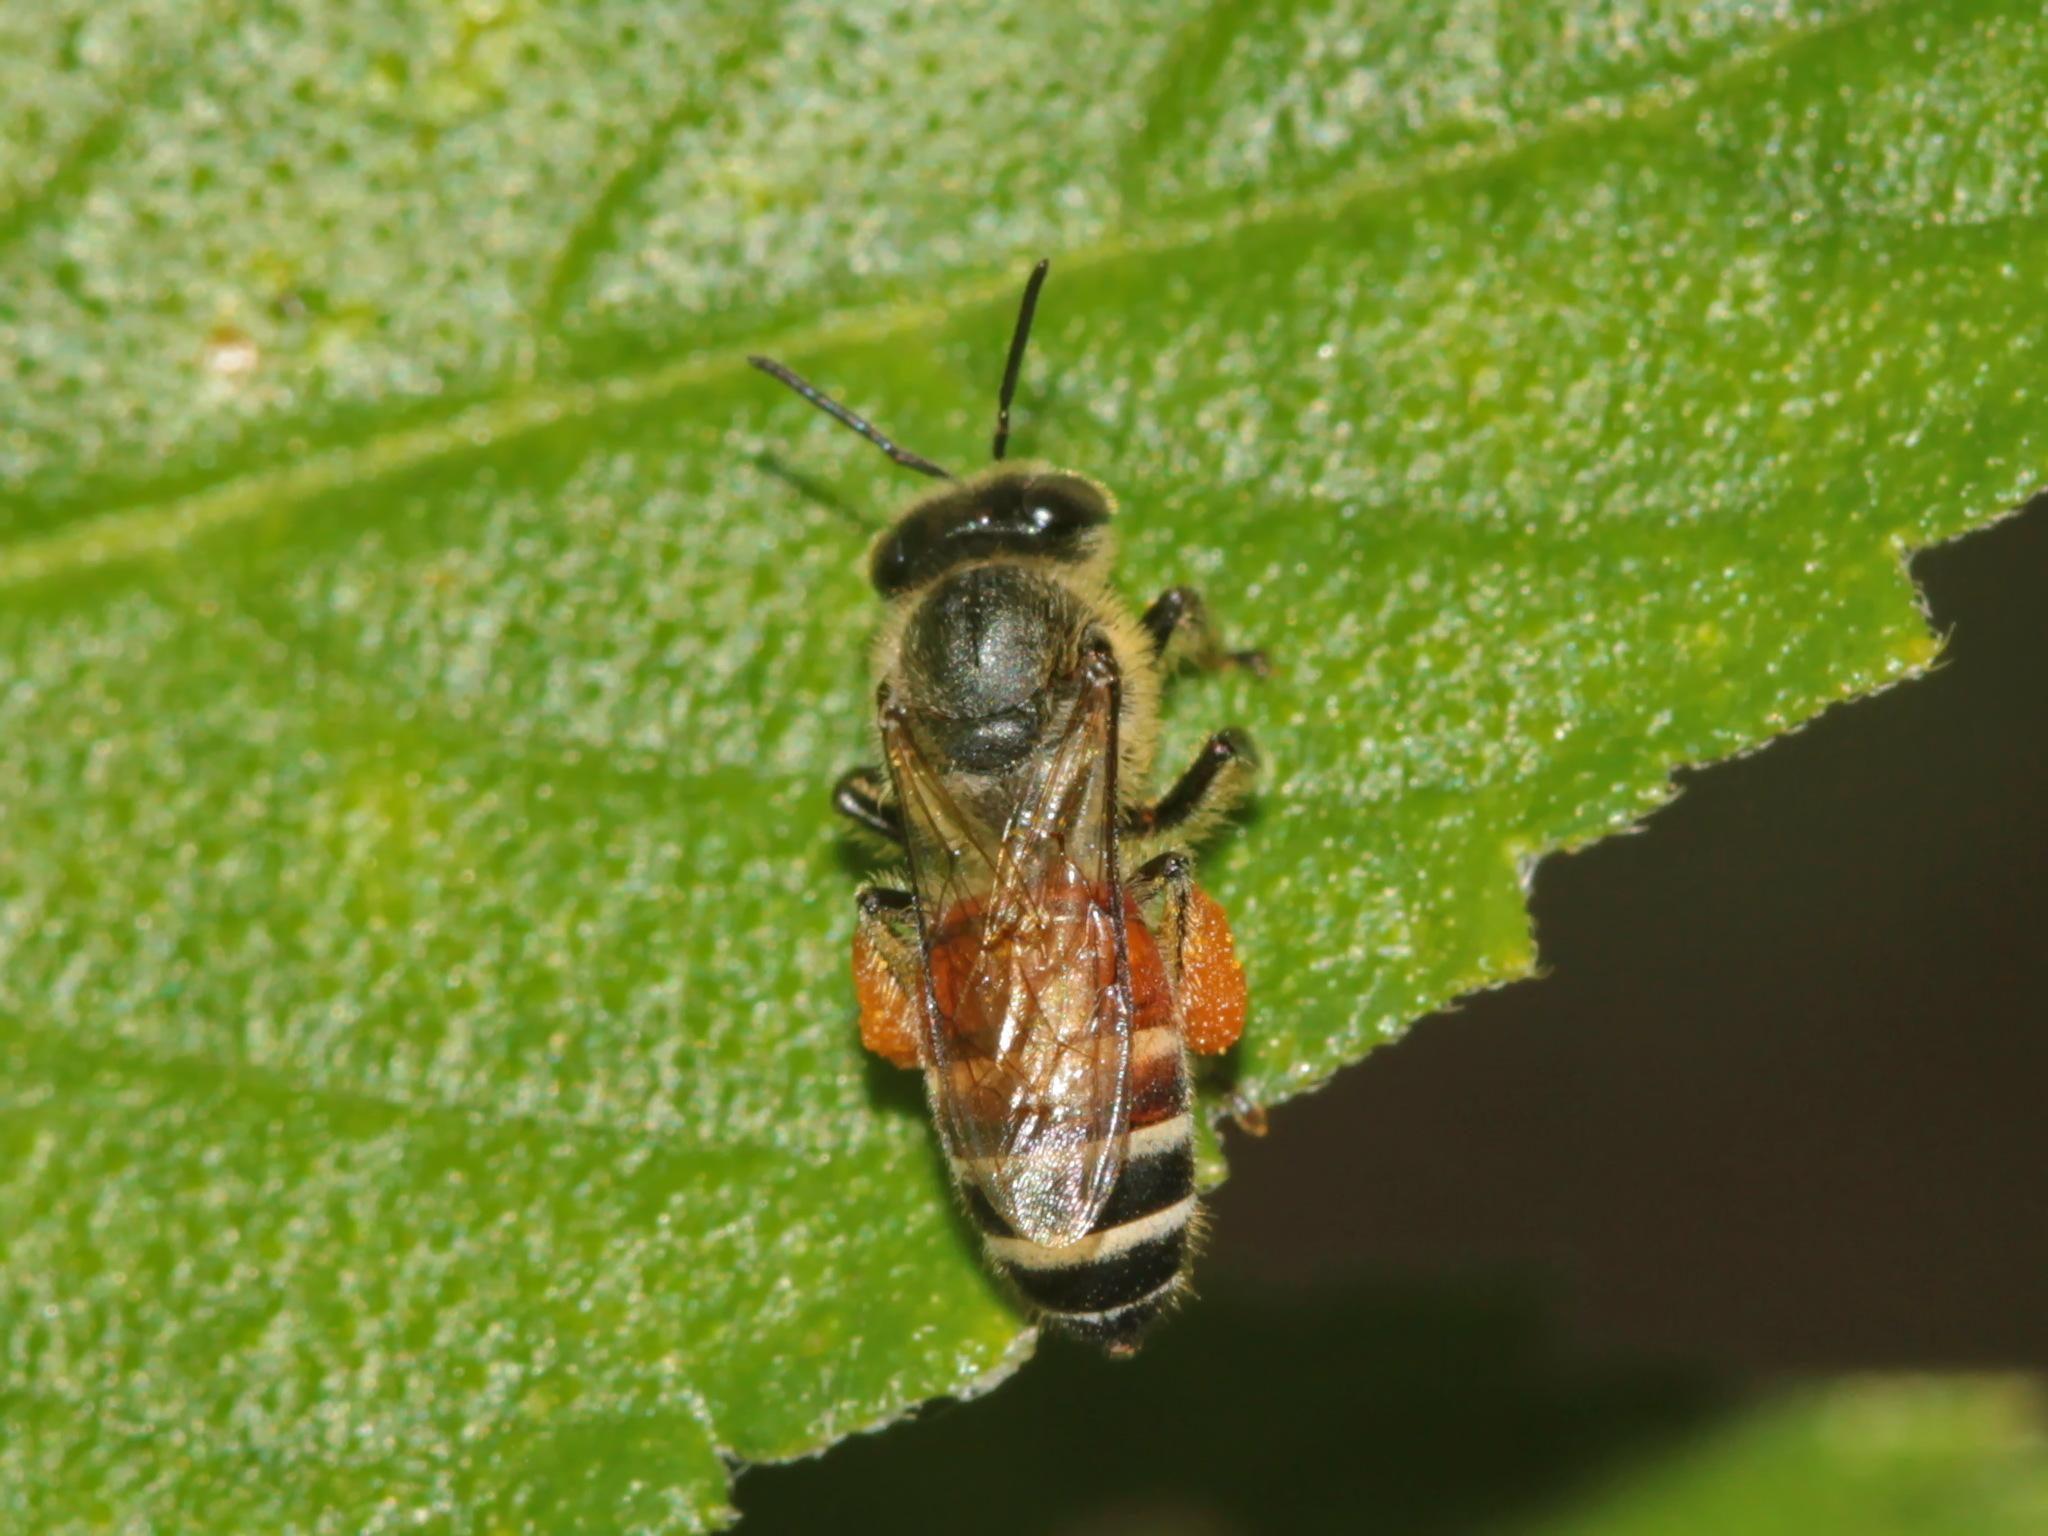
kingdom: Animalia
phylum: Arthropoda
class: Insecta
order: Hymenoptera
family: Apidae
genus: Apis
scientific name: Apis florea
